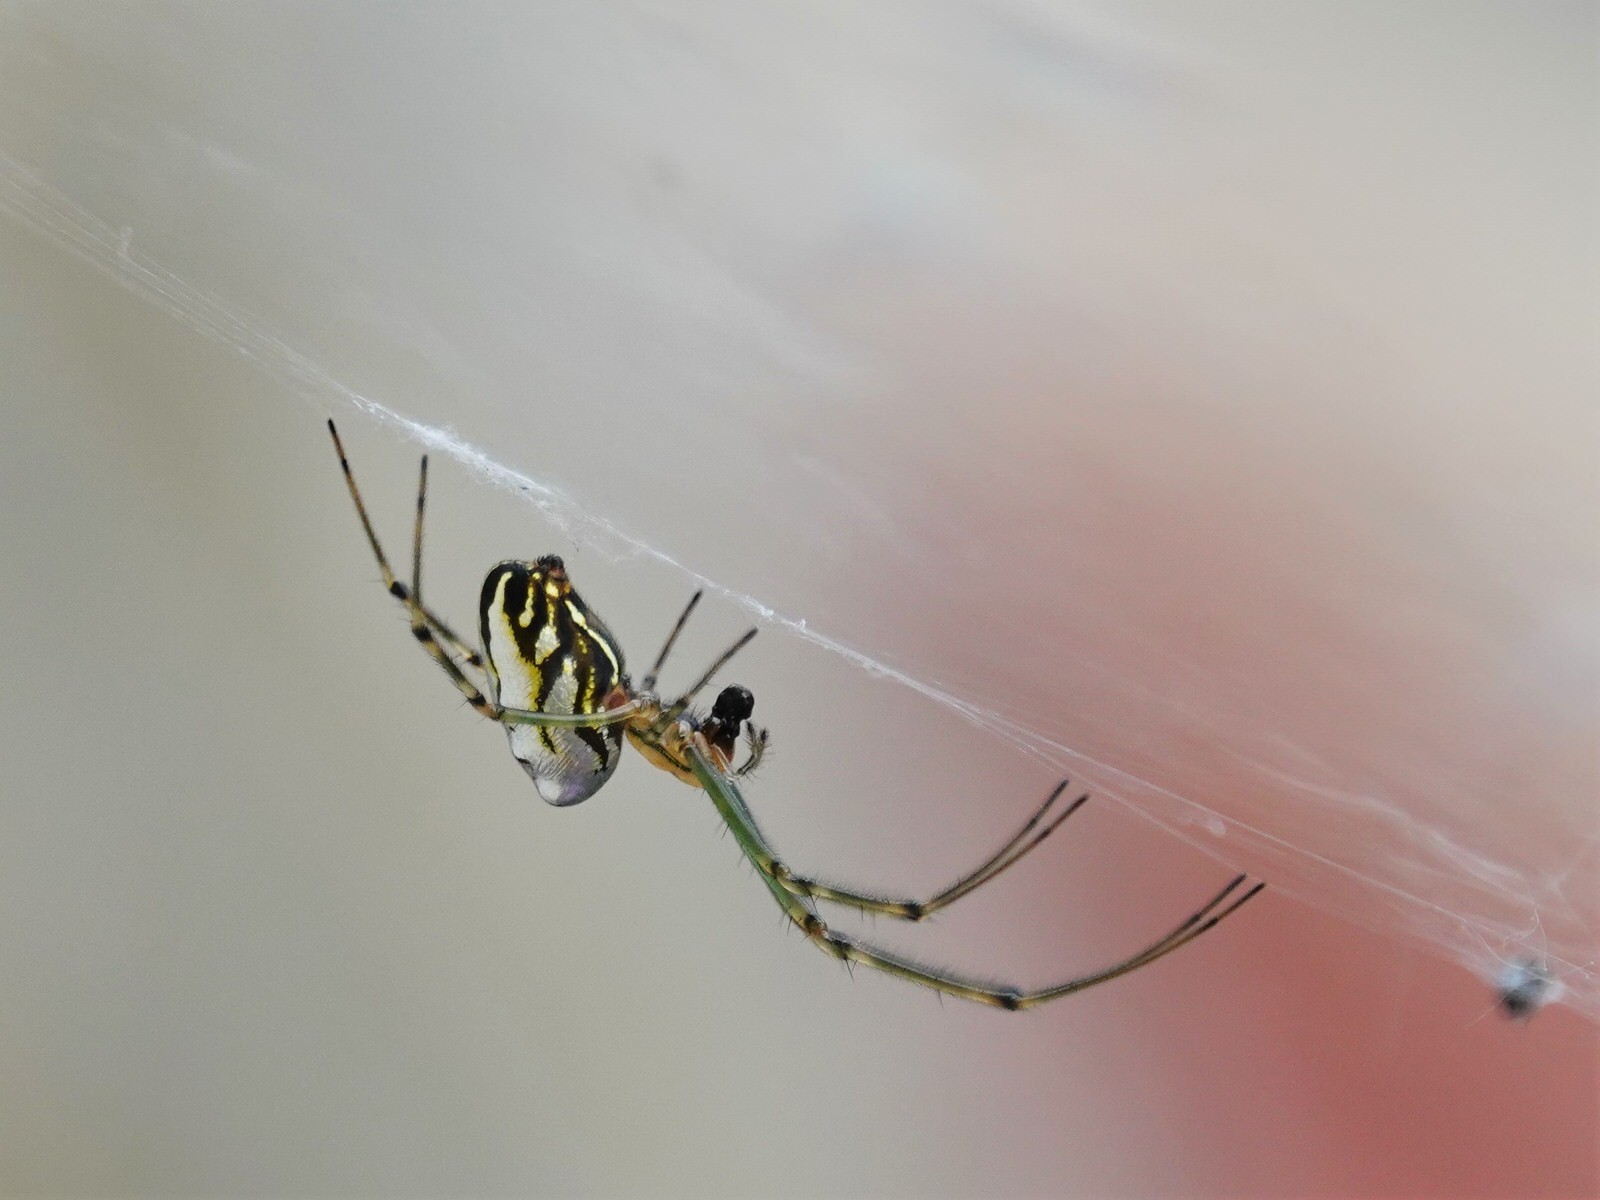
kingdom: Animalia
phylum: Arthropoda
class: Arachnida
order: Araneae
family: Tetragnathidae
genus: Leucauge
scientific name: Leucauge dromedaria
